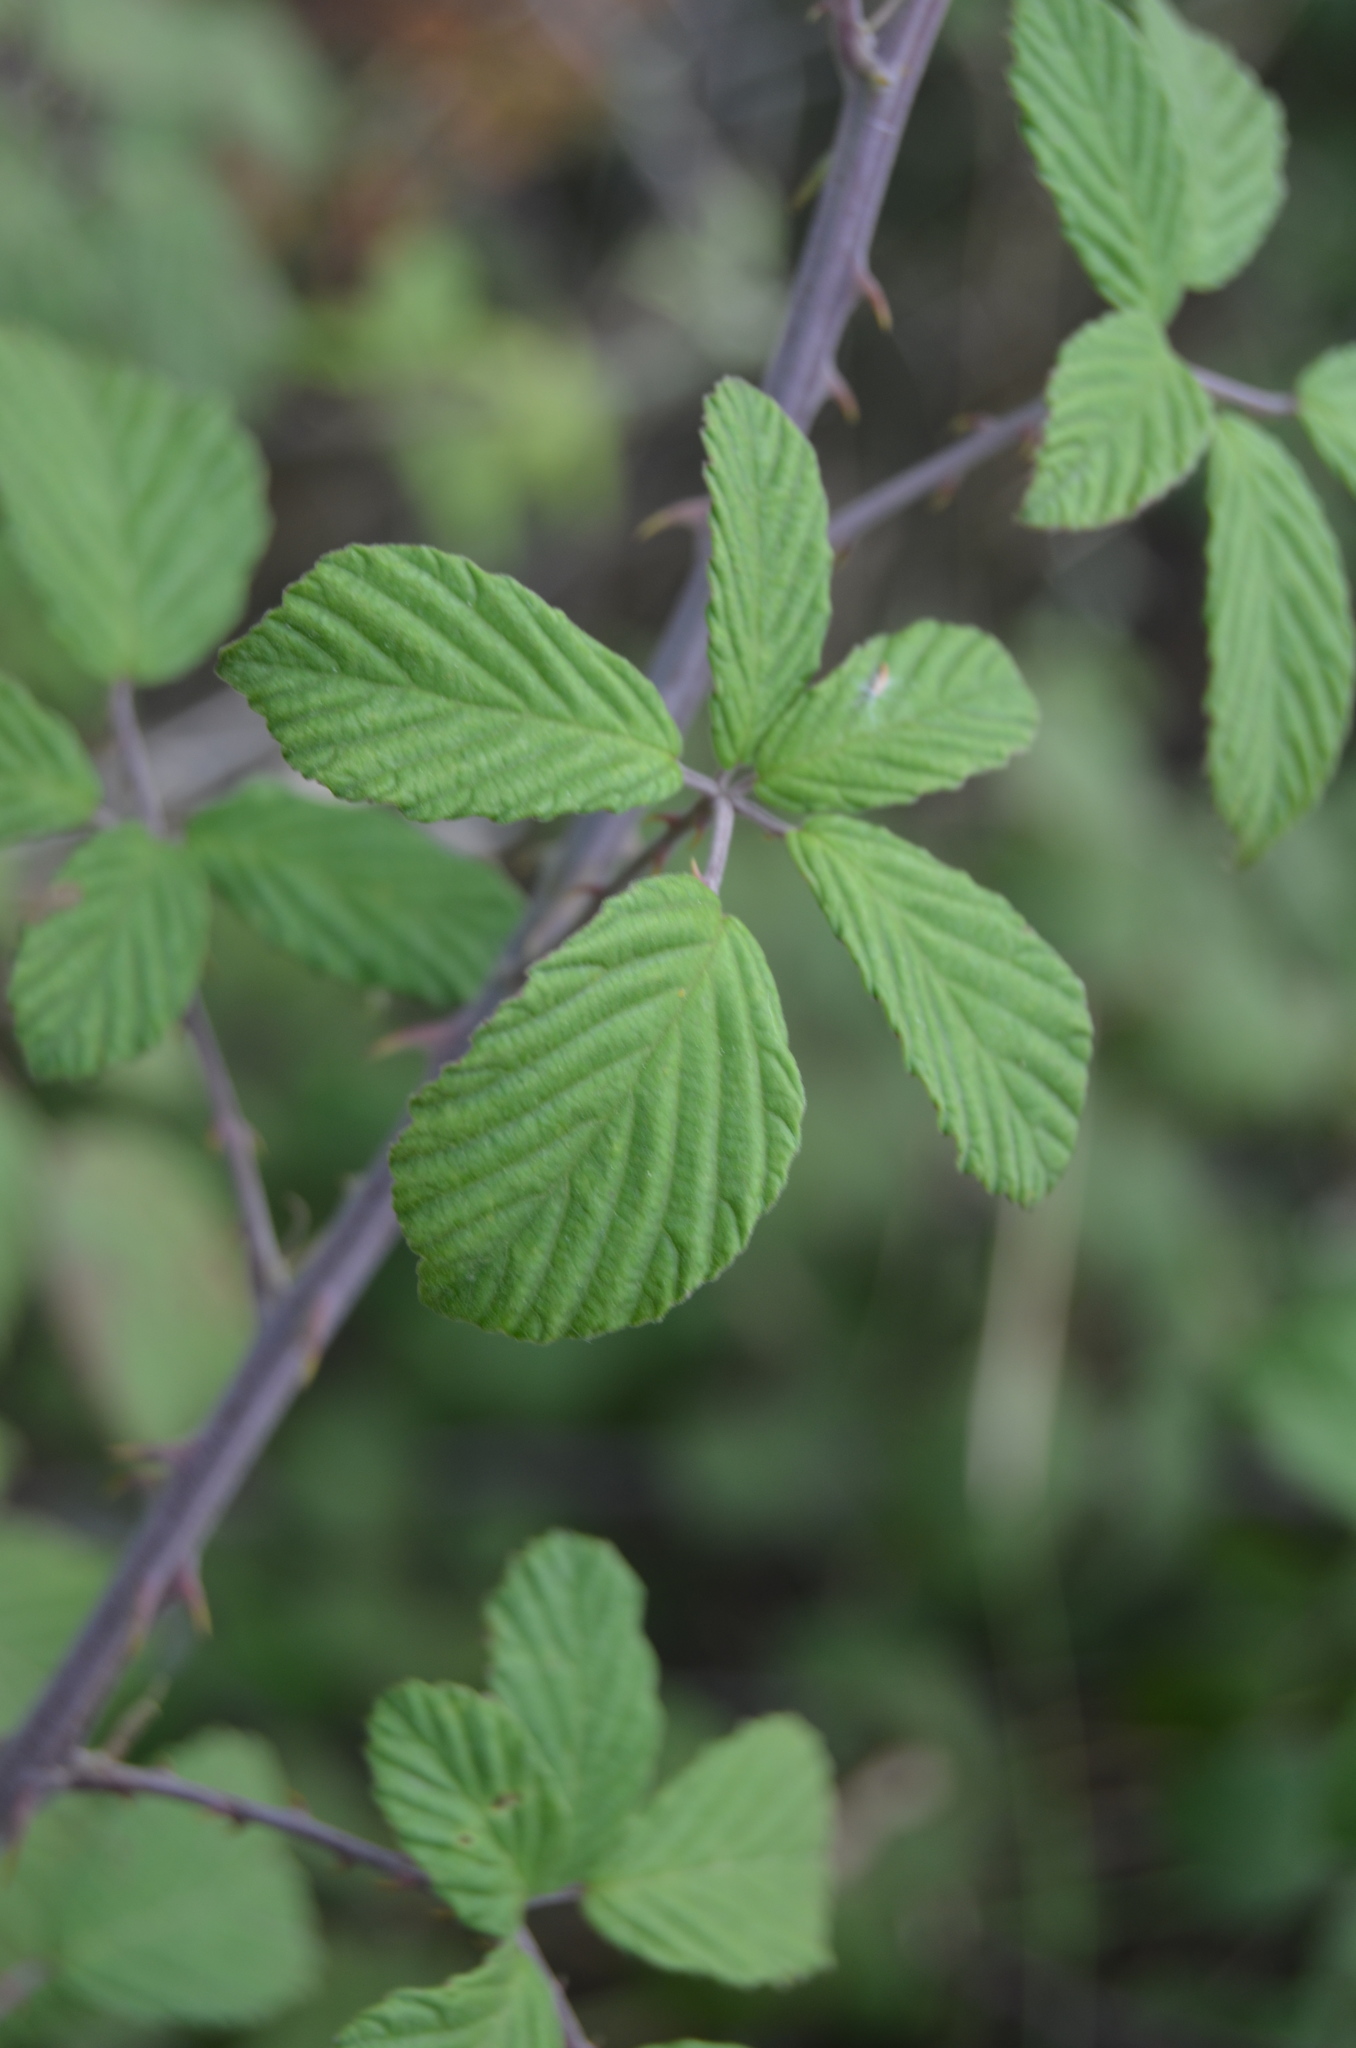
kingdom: Plantae
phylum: Tracheophyta
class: Magnoliopsida
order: Rosales
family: Rosaceae
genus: Rubus
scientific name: Rubus ulmifolius
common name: Elmleaf blackberry
